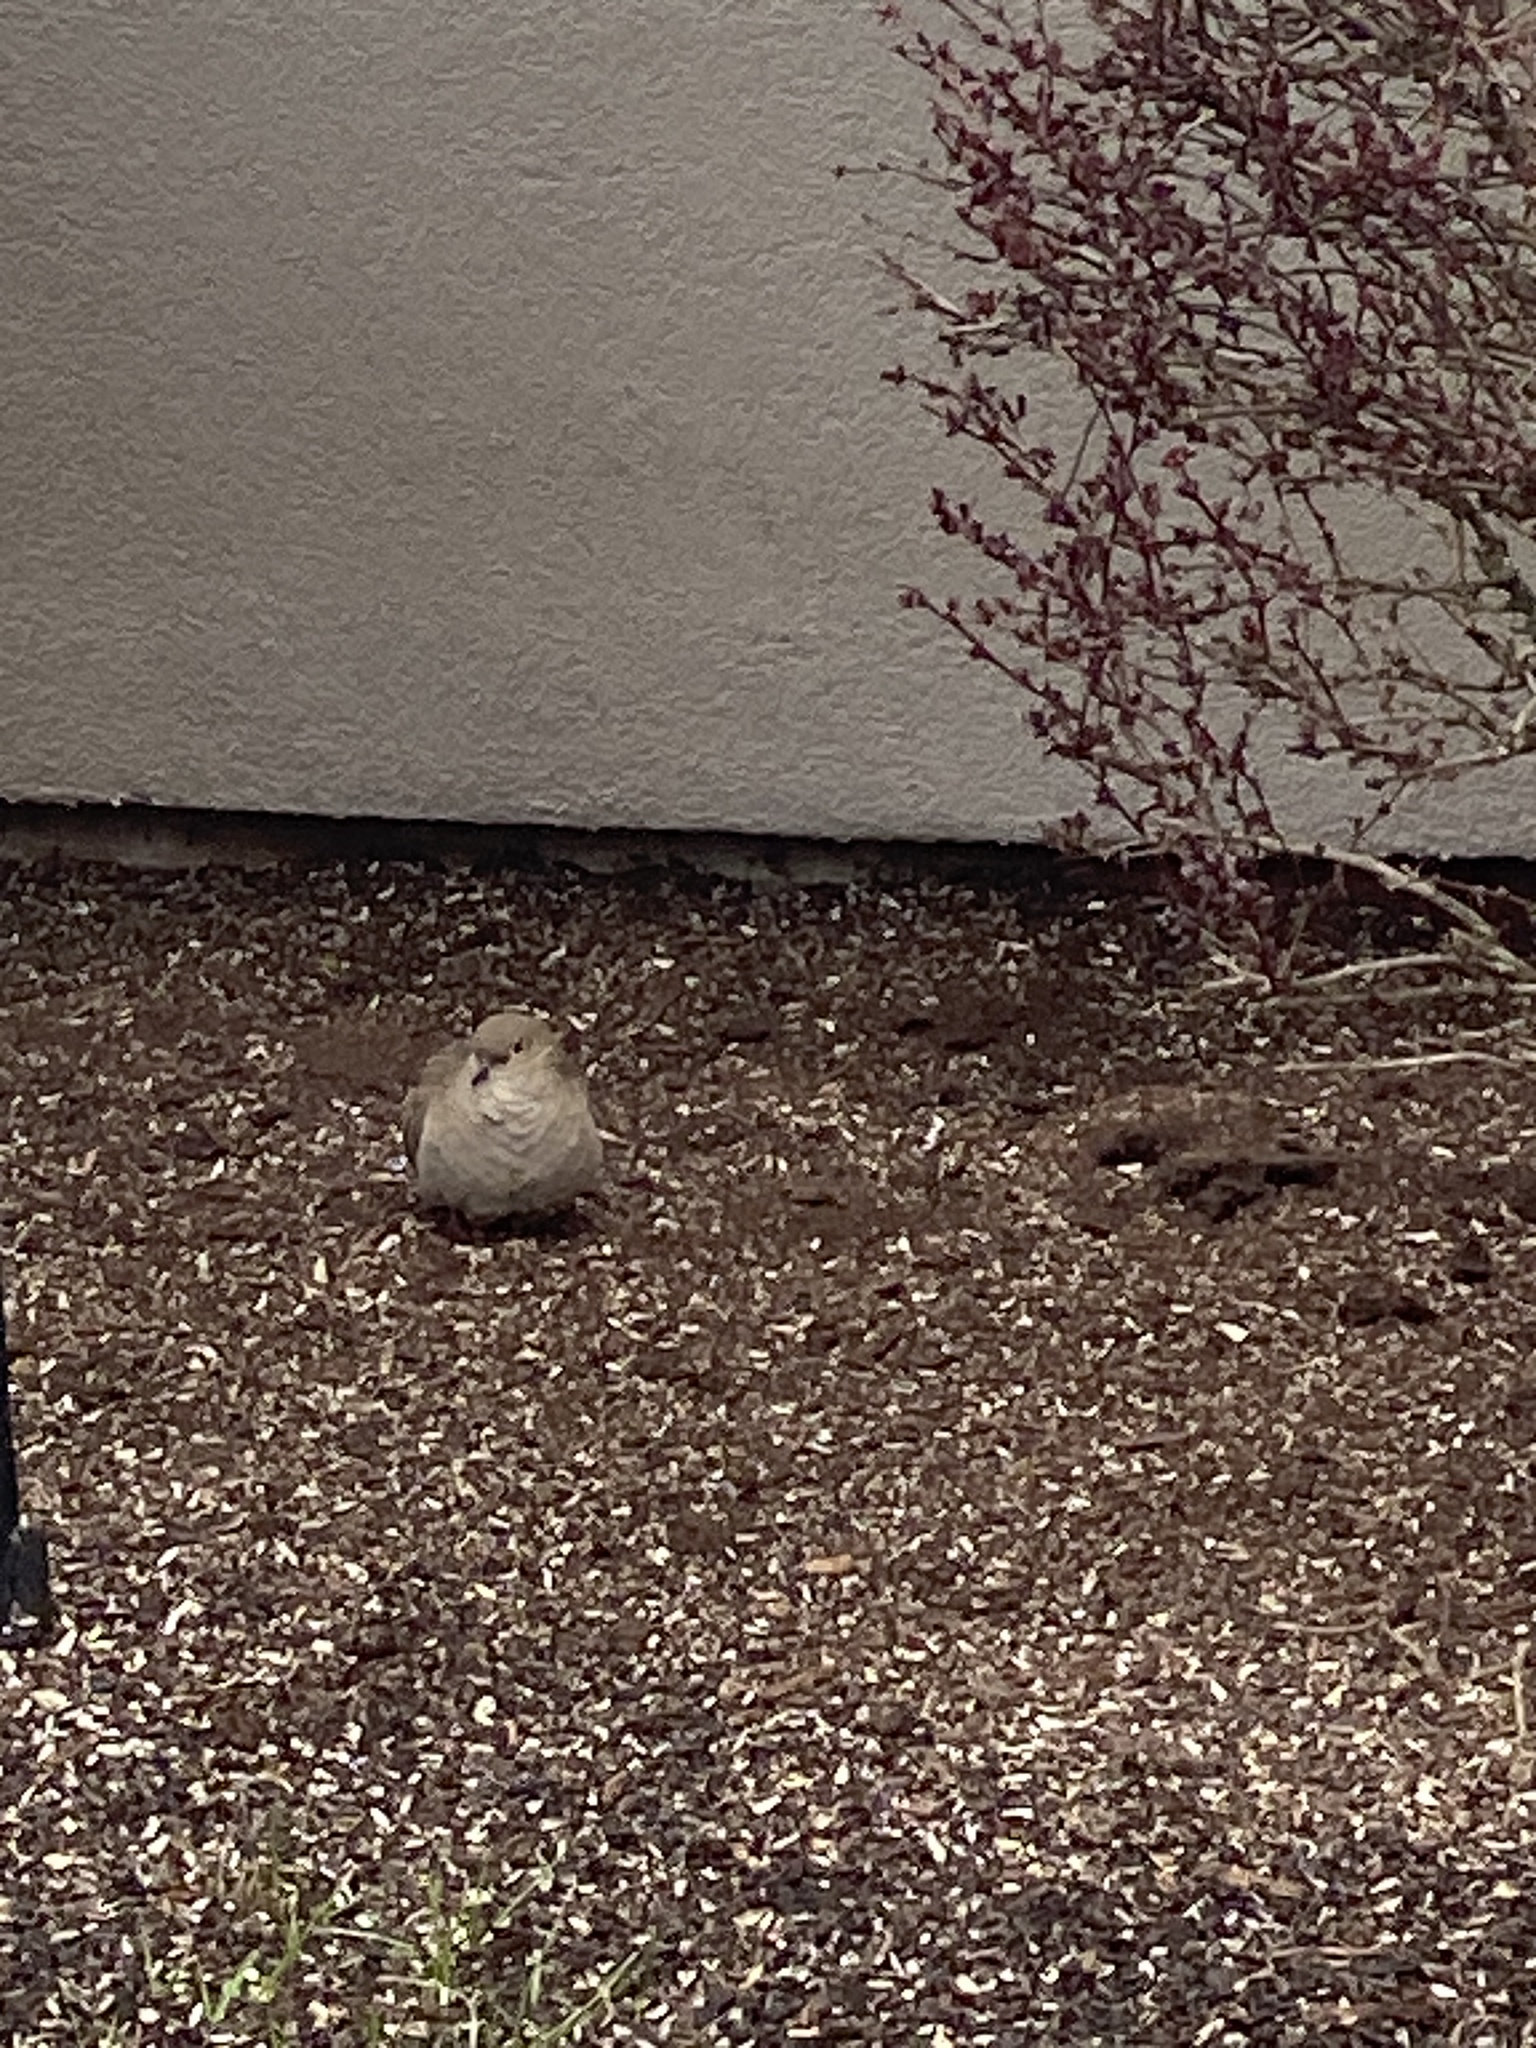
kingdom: Animalia
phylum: Chordata
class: Aves
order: Columbiformes
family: Columbidae
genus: Zenaida
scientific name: Zenaida macroura
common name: Mourning dove
